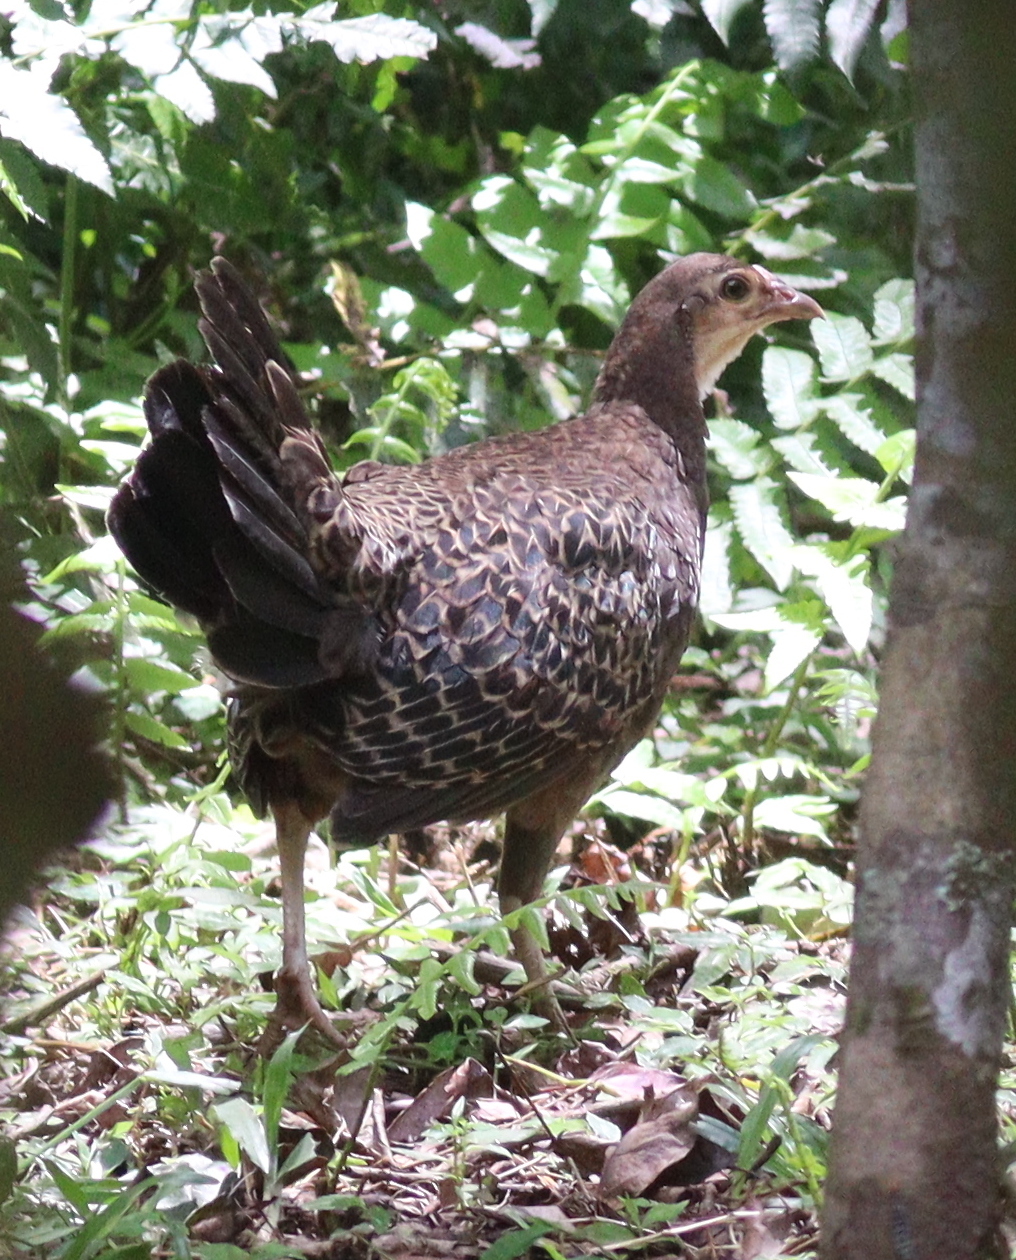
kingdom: Animalia
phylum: Chordata
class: Aves
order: Galliformes
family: Phasianidae
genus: Gallus
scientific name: Gallus varius
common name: Green junglefowl
